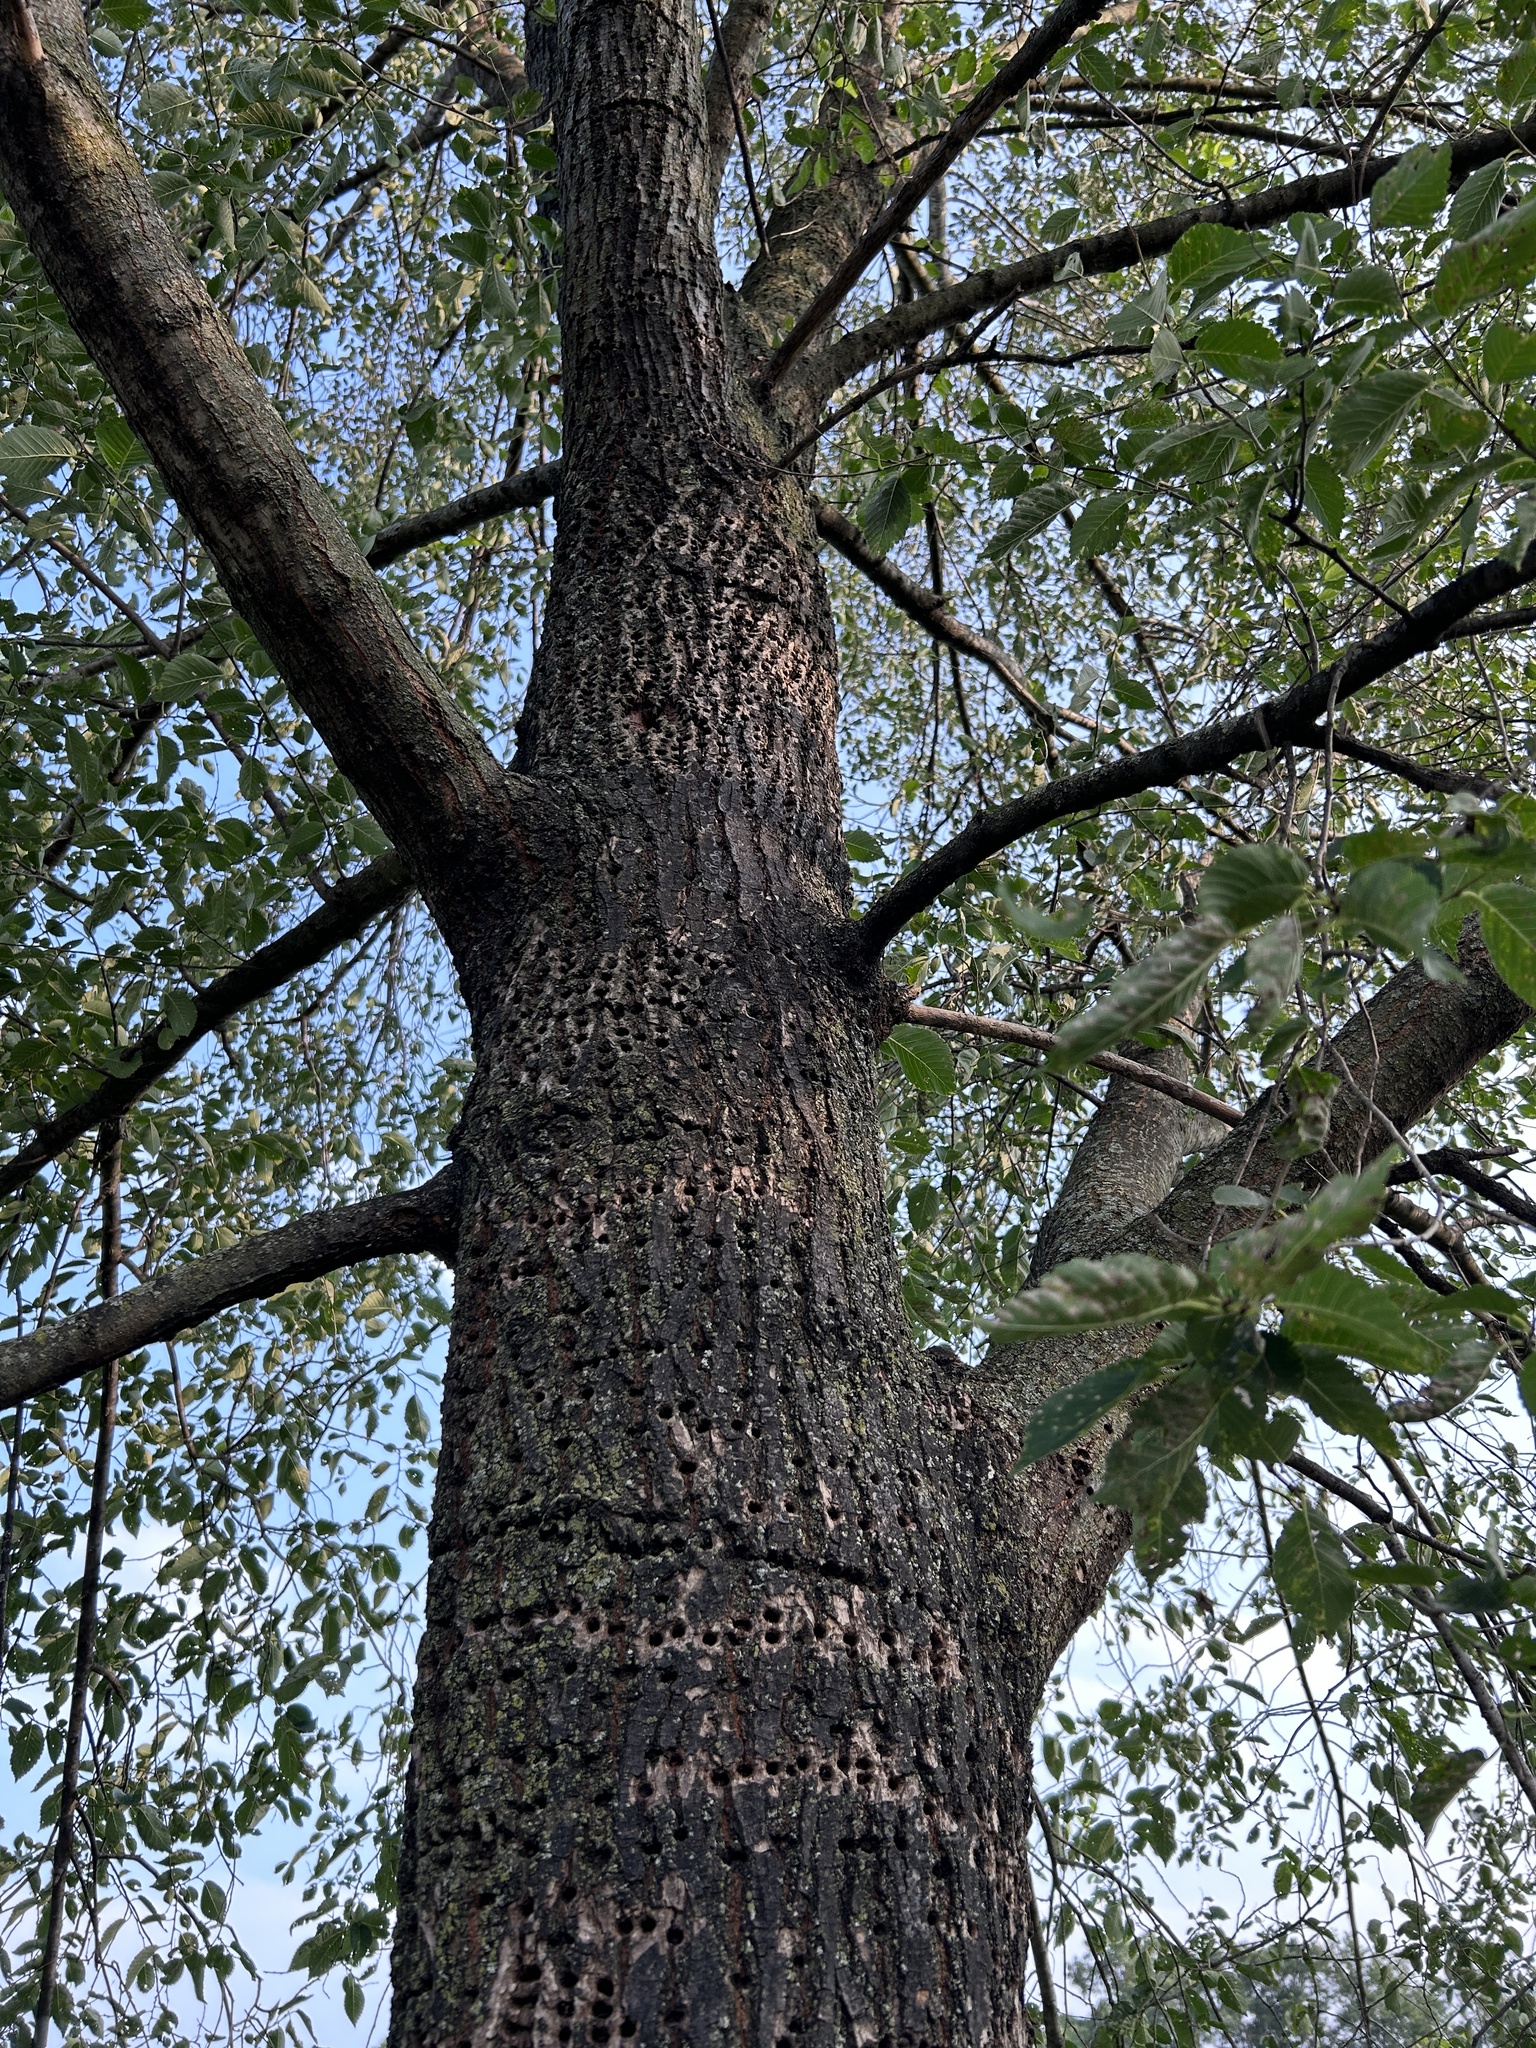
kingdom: Animalia
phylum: Chordata
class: Aves
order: Piciformes
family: Picidae
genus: Sphyrapicus
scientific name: Sphyrapicus varius
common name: Yellow-bellied sapsucker
